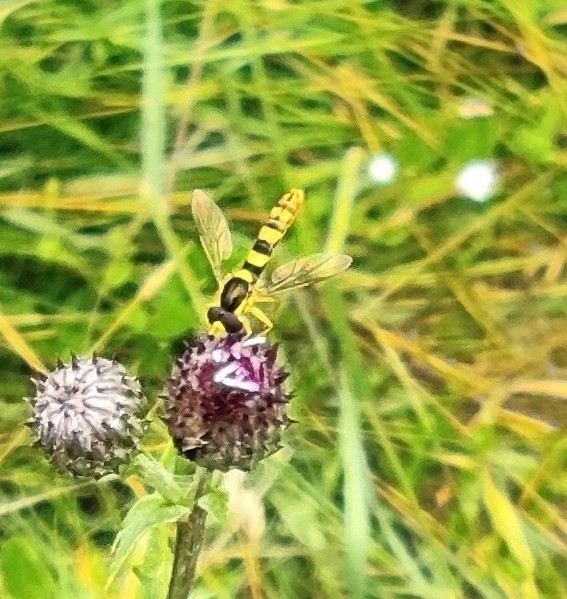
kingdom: Animalia
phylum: Arthropoda
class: Insecta
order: Diptera
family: Syrphidae
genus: Sphaerophoria
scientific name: Sphaerophoria scripta
